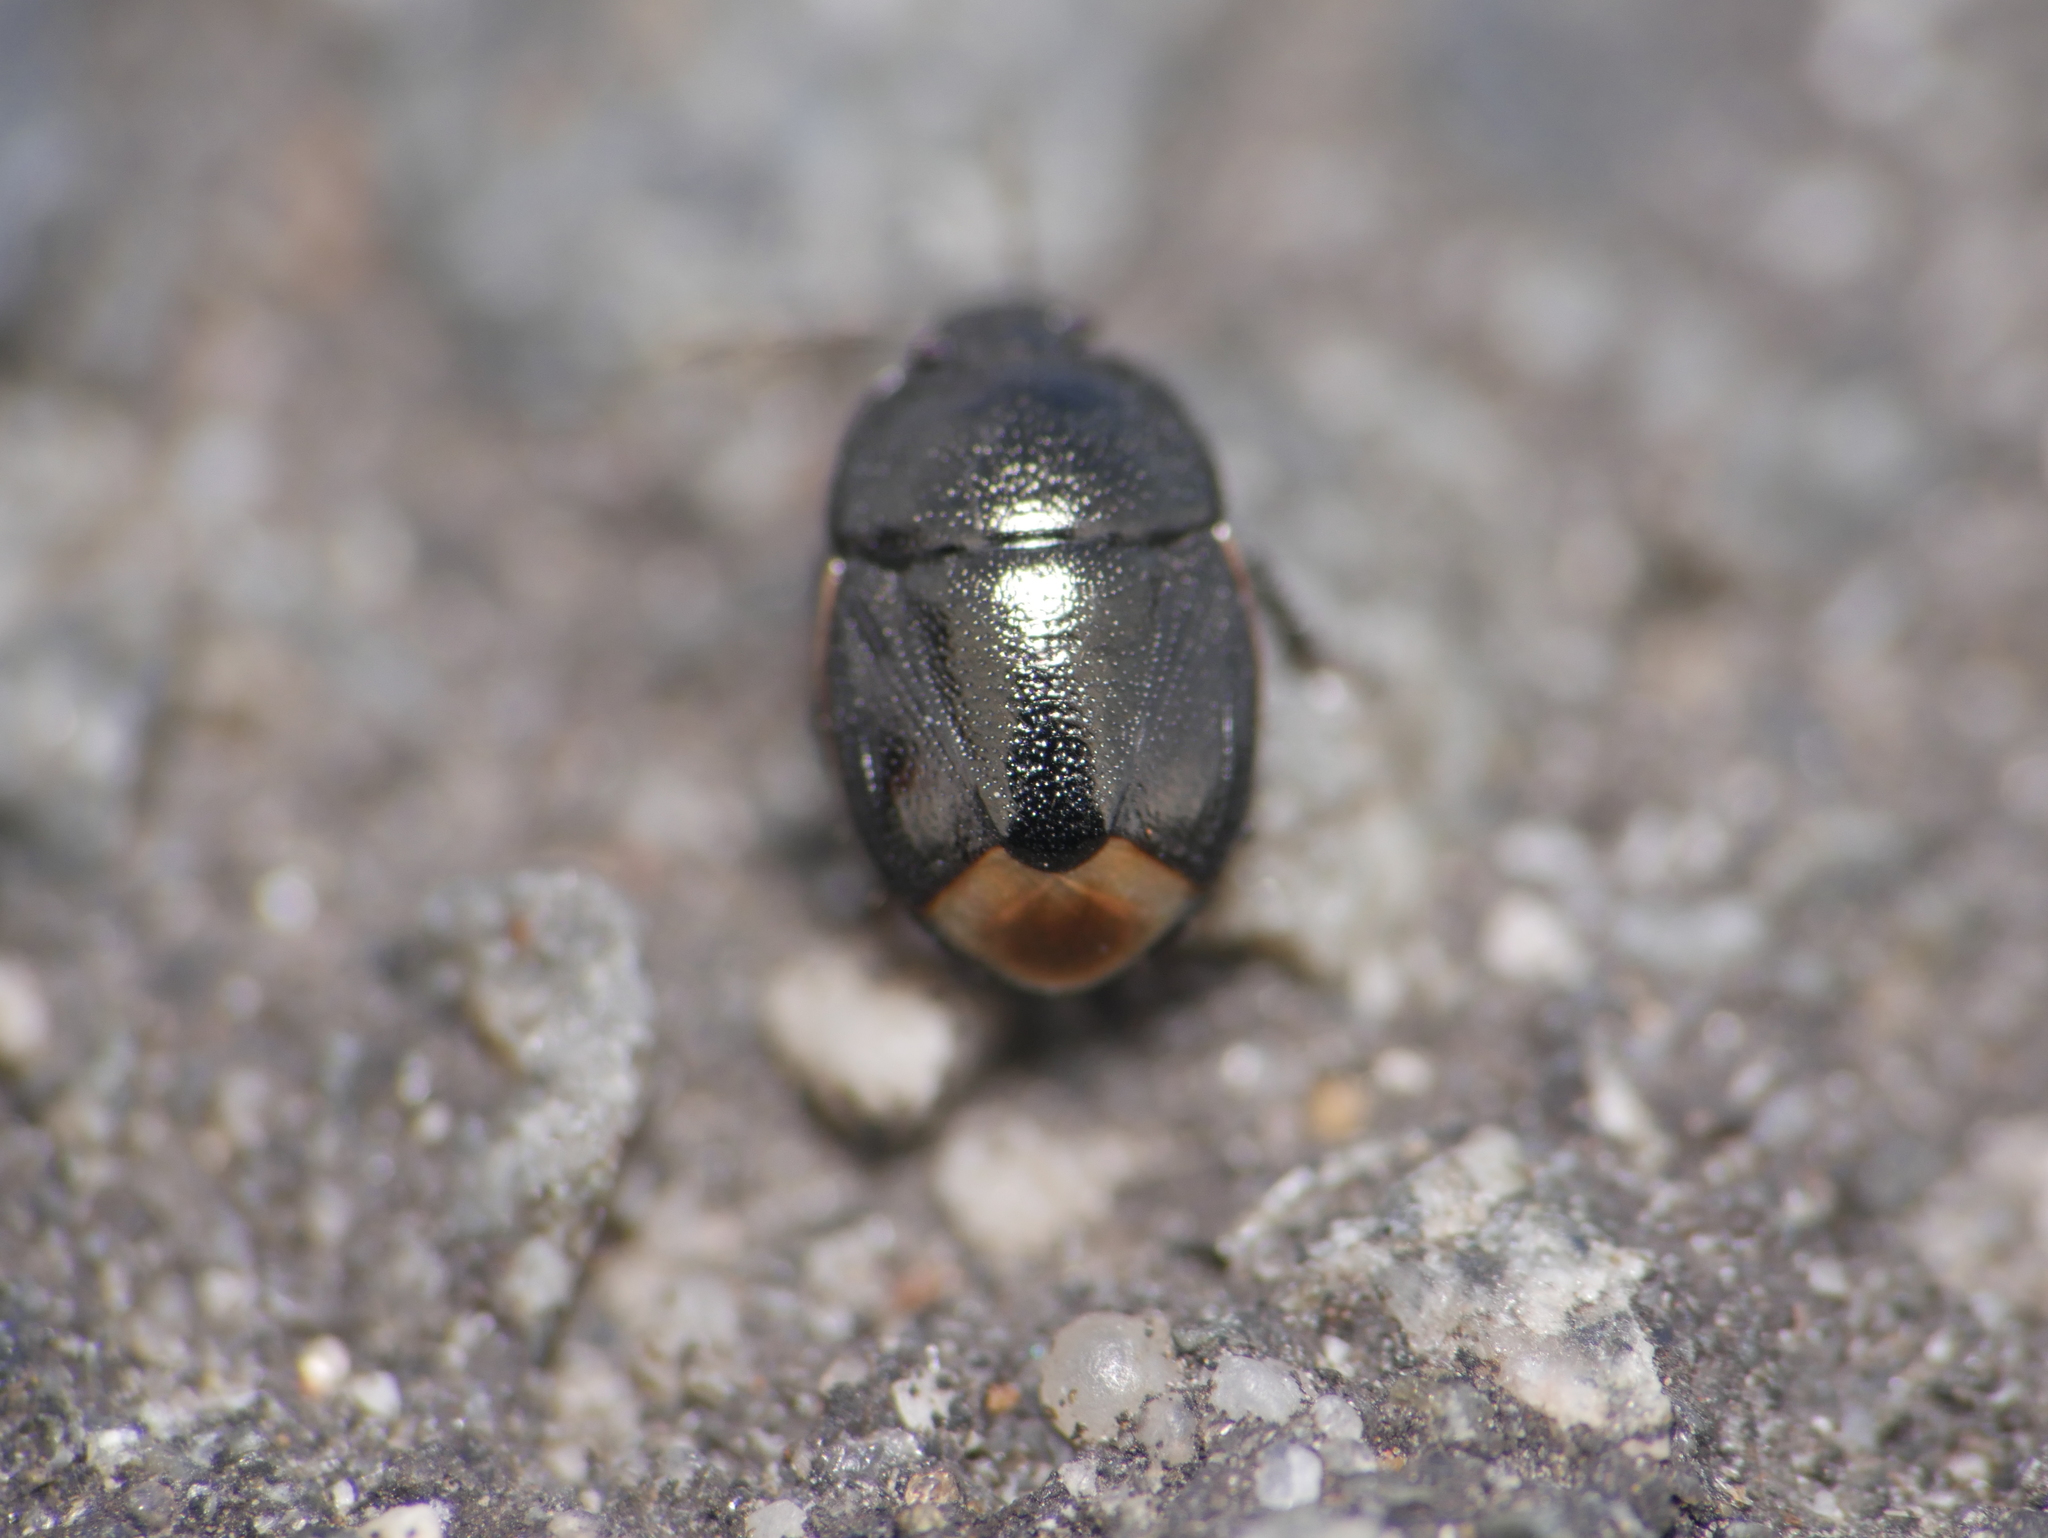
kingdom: Animalia
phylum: Arthropoda
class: Insecta
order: Hemiptera
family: Cydnidae
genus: Legnotus
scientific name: Legnotus limbosus
